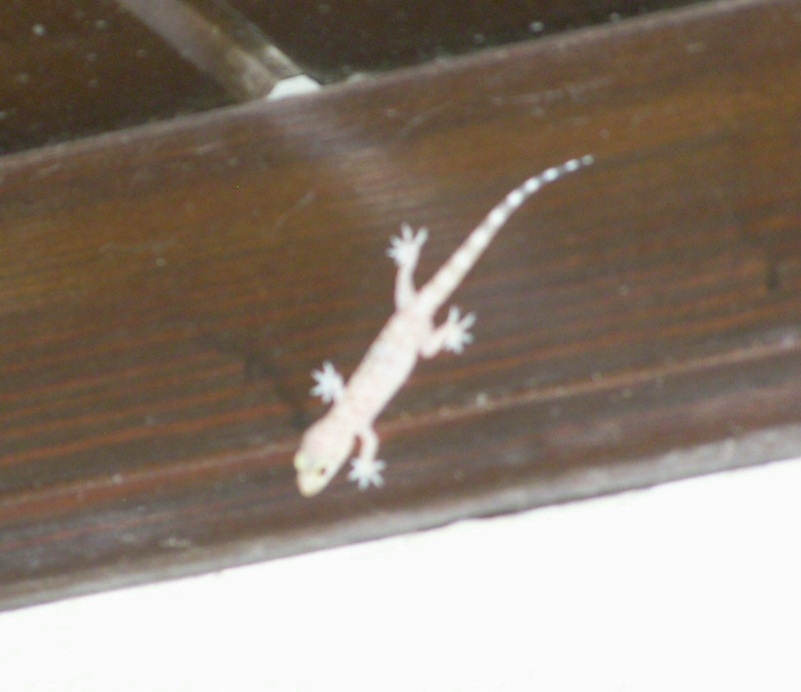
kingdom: Animalia
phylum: Chordata
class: Squamata
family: Gekkonidae
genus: Hemidactylus
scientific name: Hemidactylus turcicus
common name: Turkish gecko
